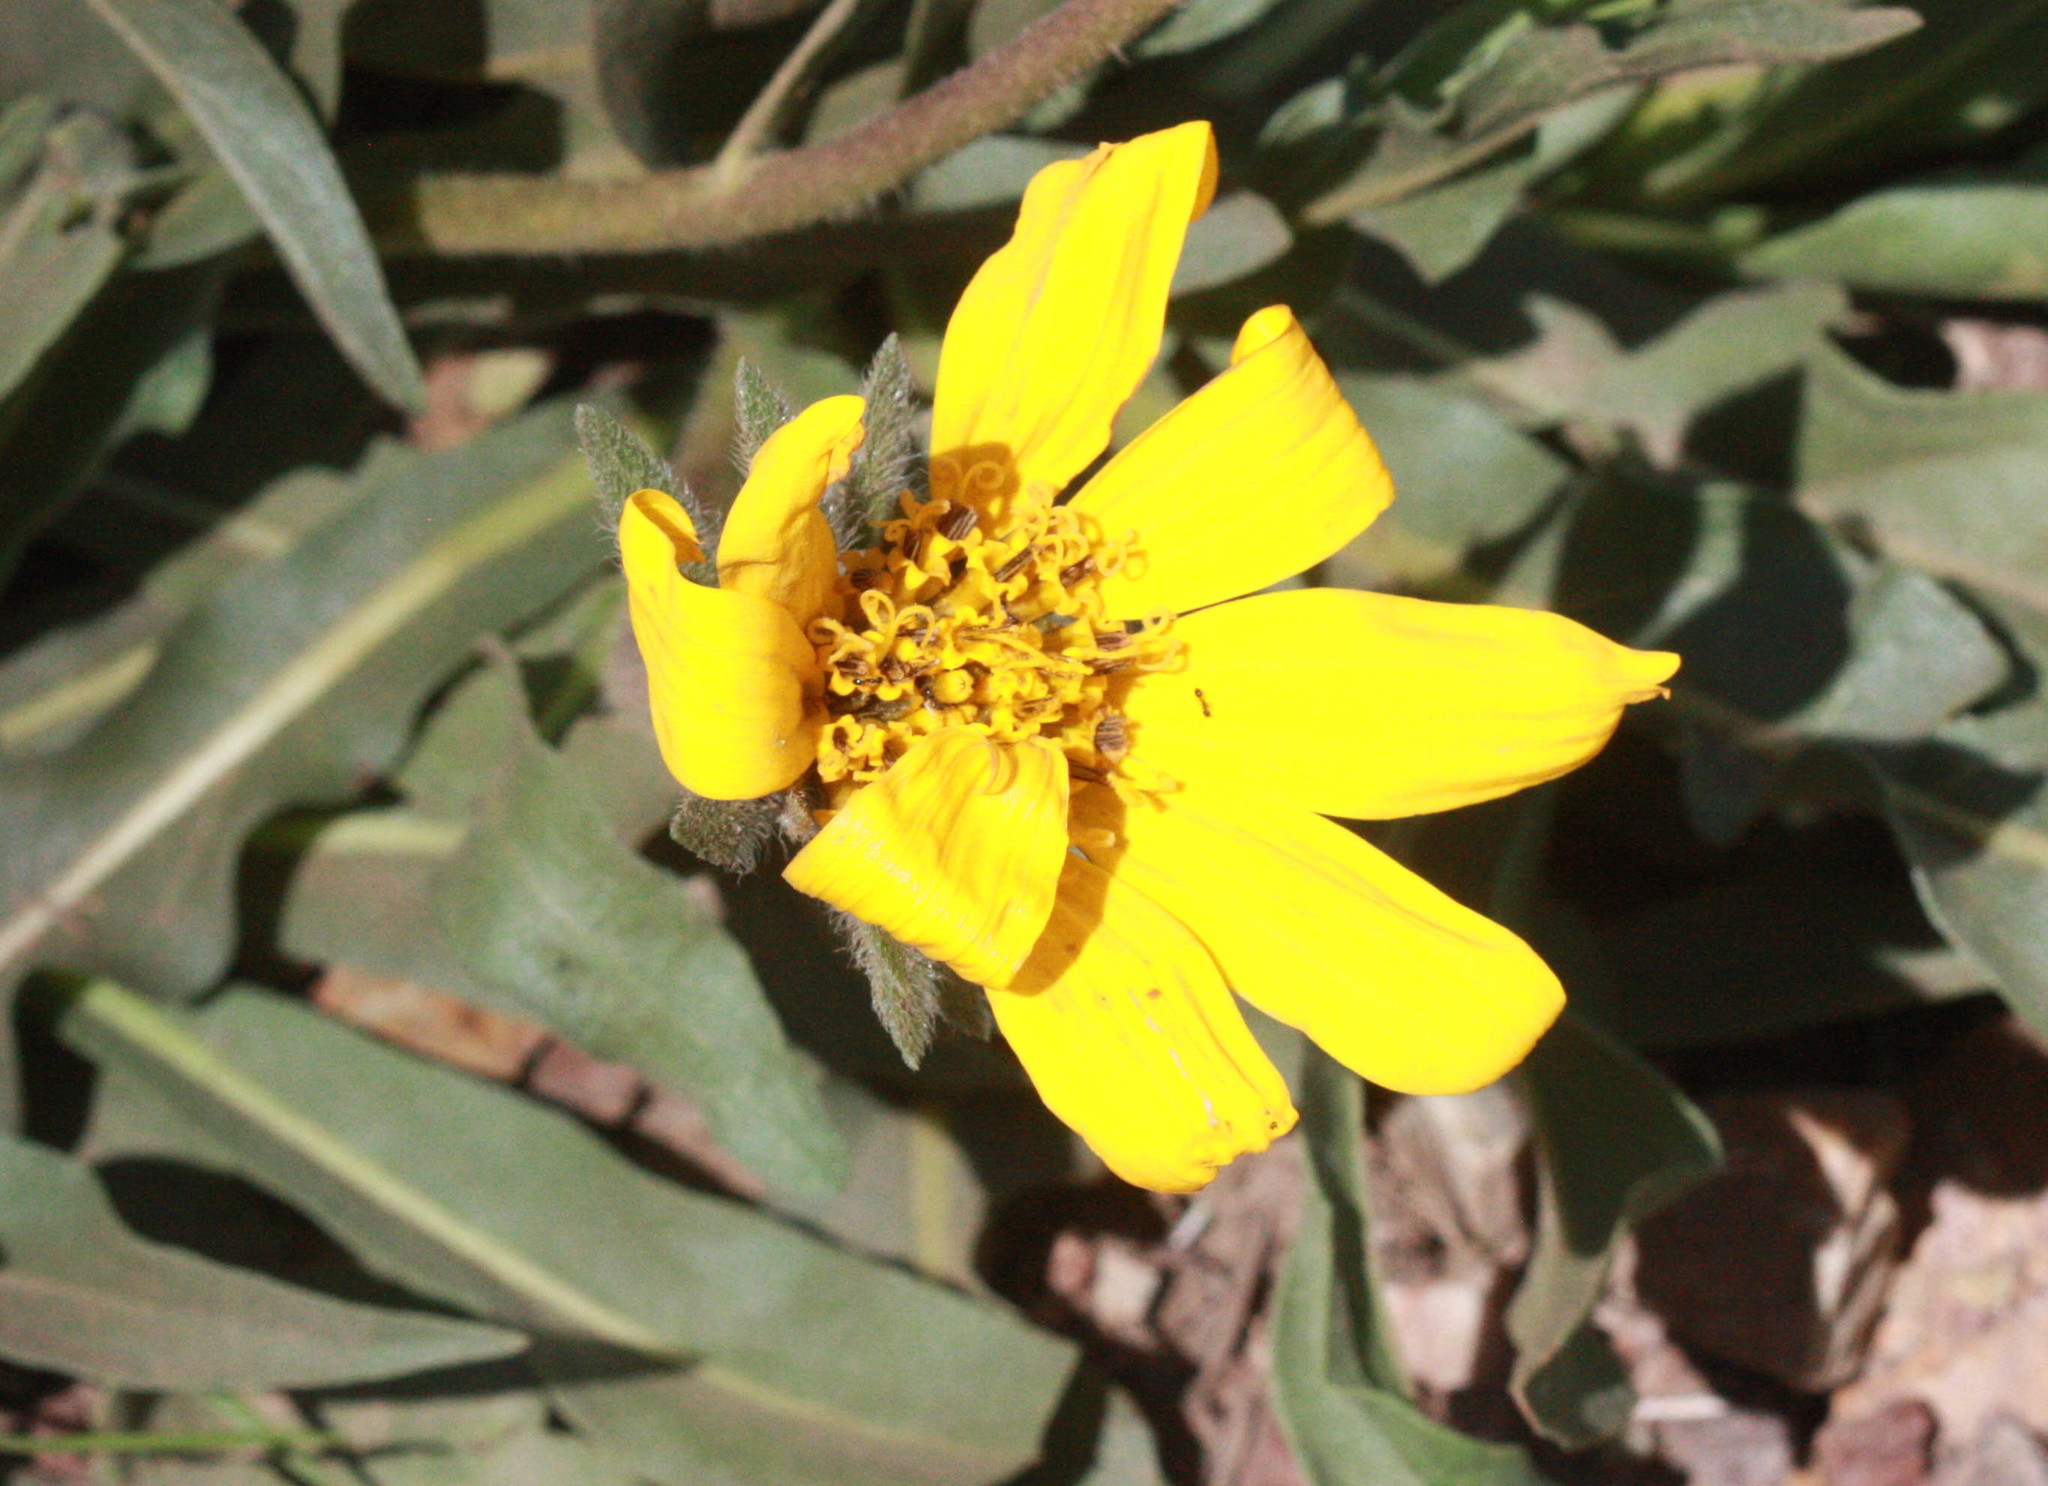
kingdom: Plantae
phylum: Tracheophyta
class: Magnoliopsida
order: Asterales
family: Asteraceae
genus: Wyethia
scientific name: Wyethia angustifolia
